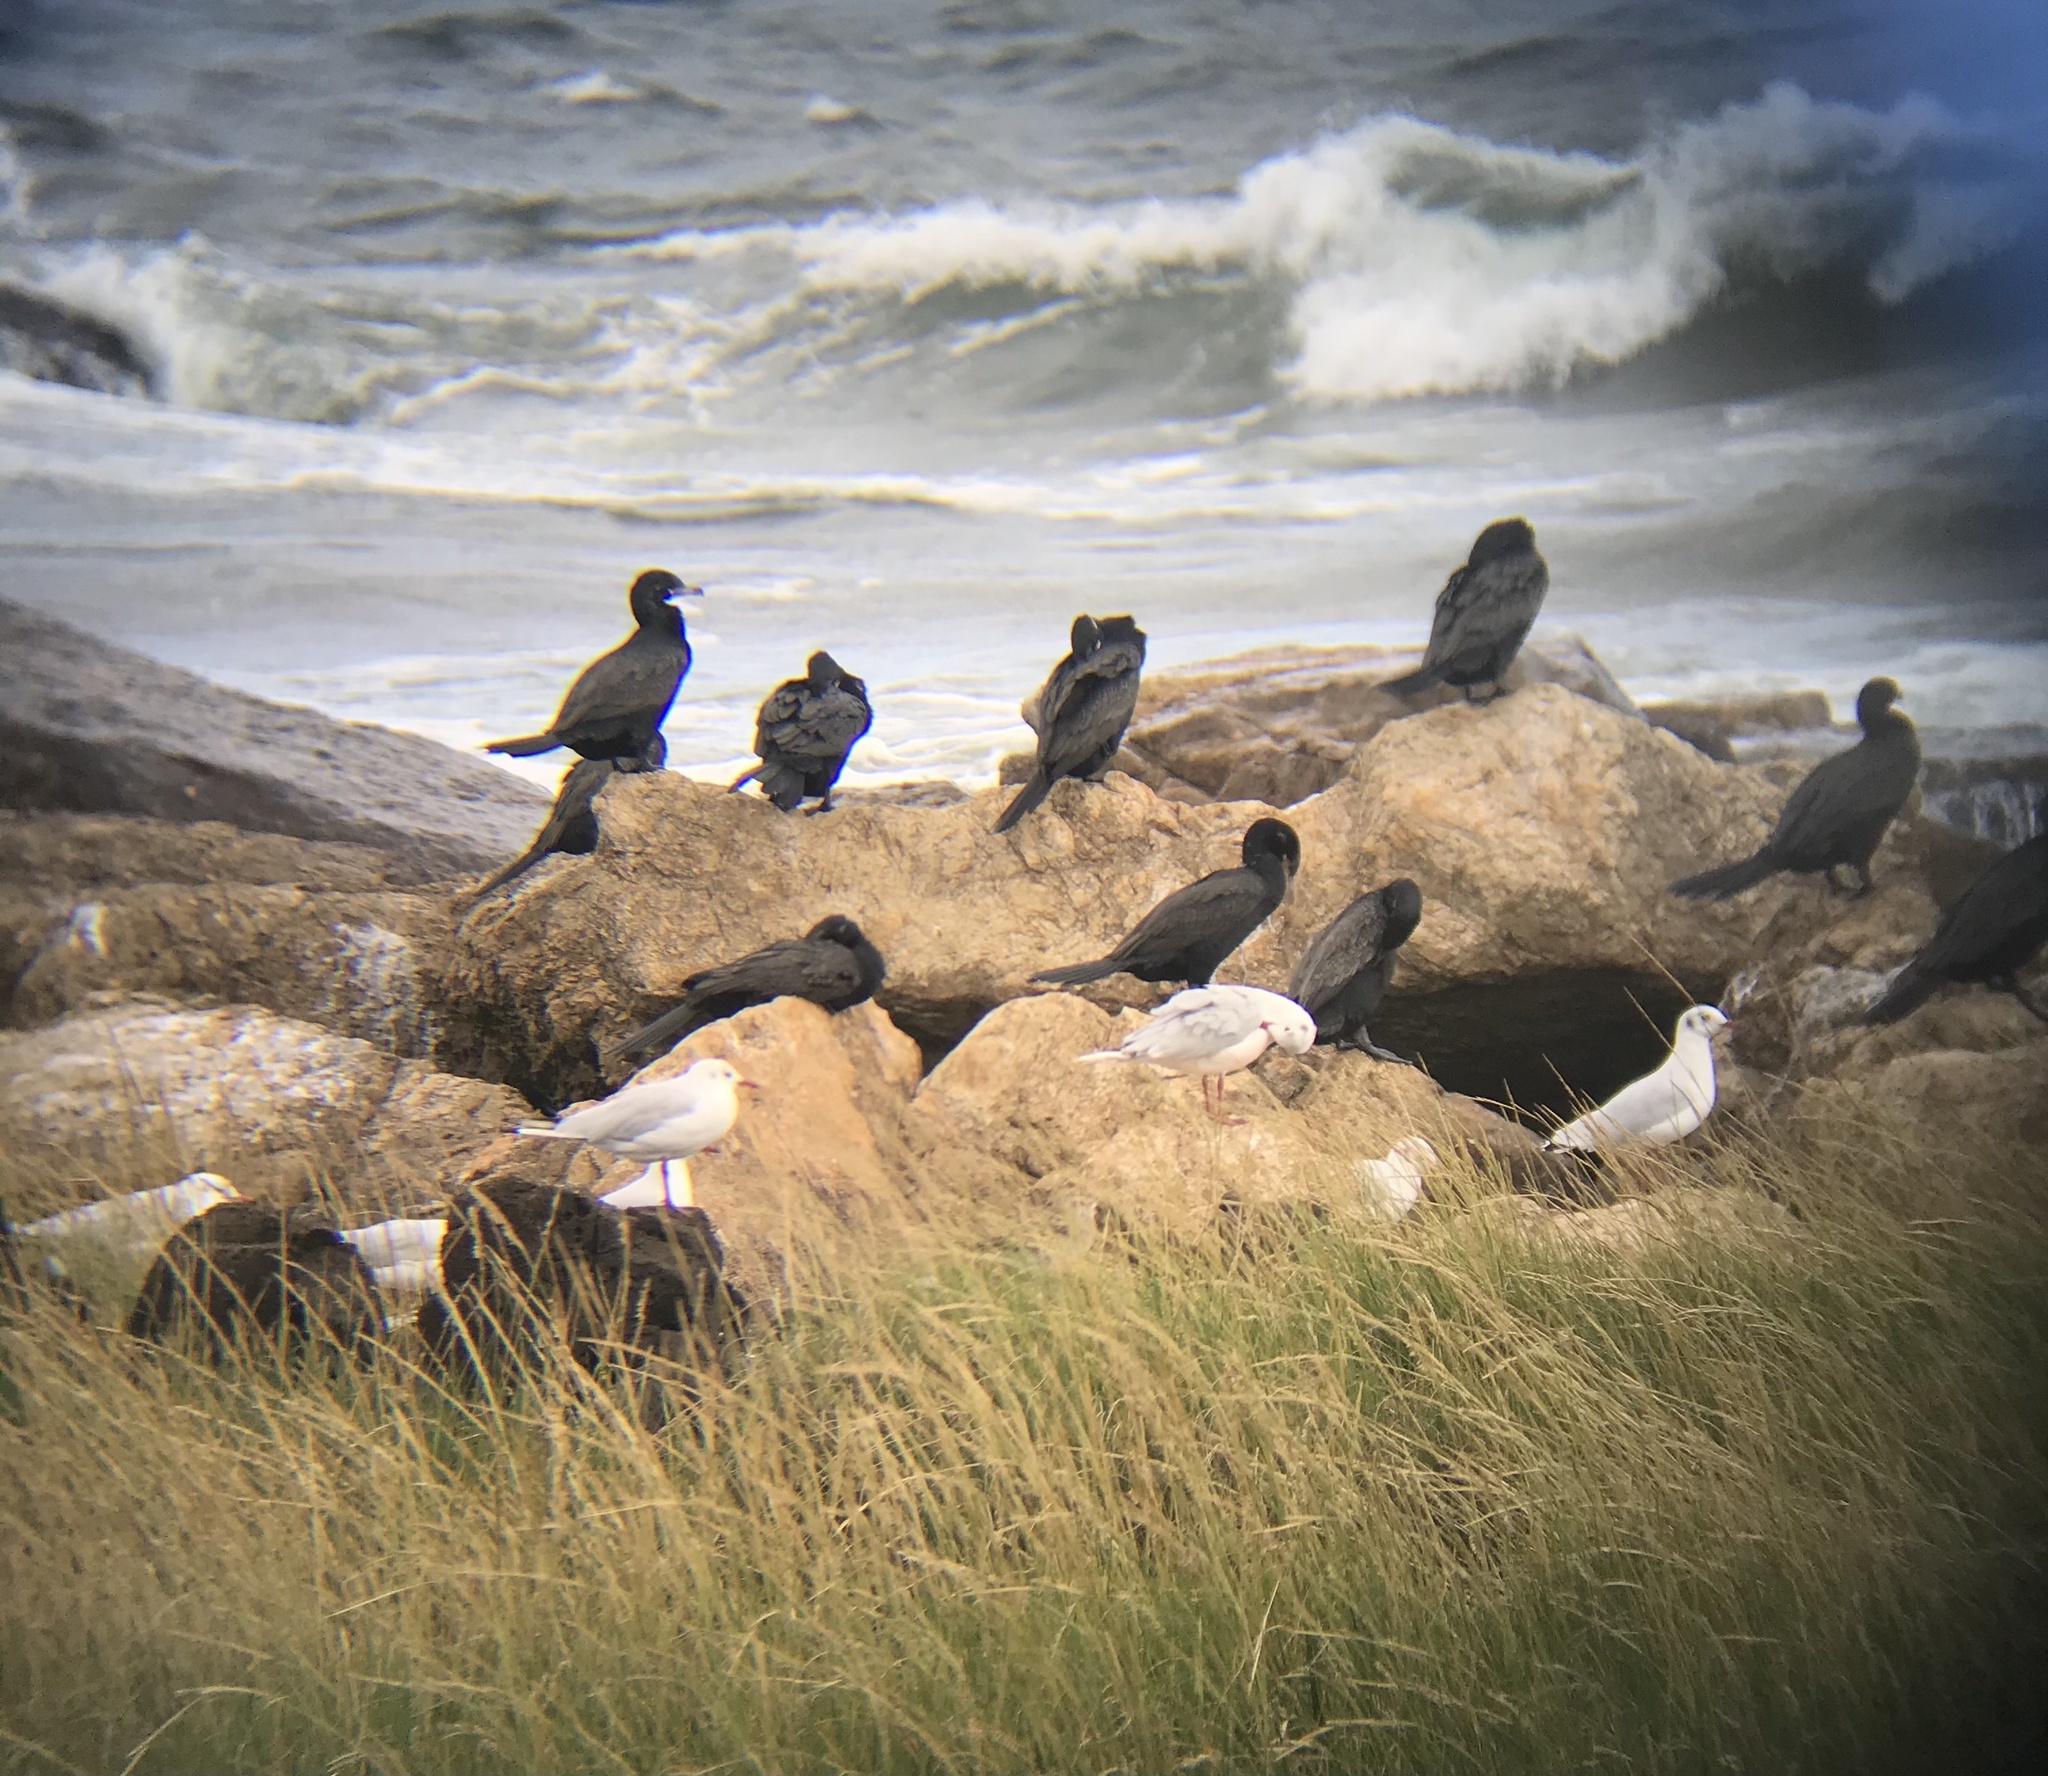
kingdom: Animalia
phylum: Chordata
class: Aves
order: Suliformes
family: Phalacrocoracidae
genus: Phalacrocorax
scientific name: Phalacrocorax brasilianus
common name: Neotropic cormorant
